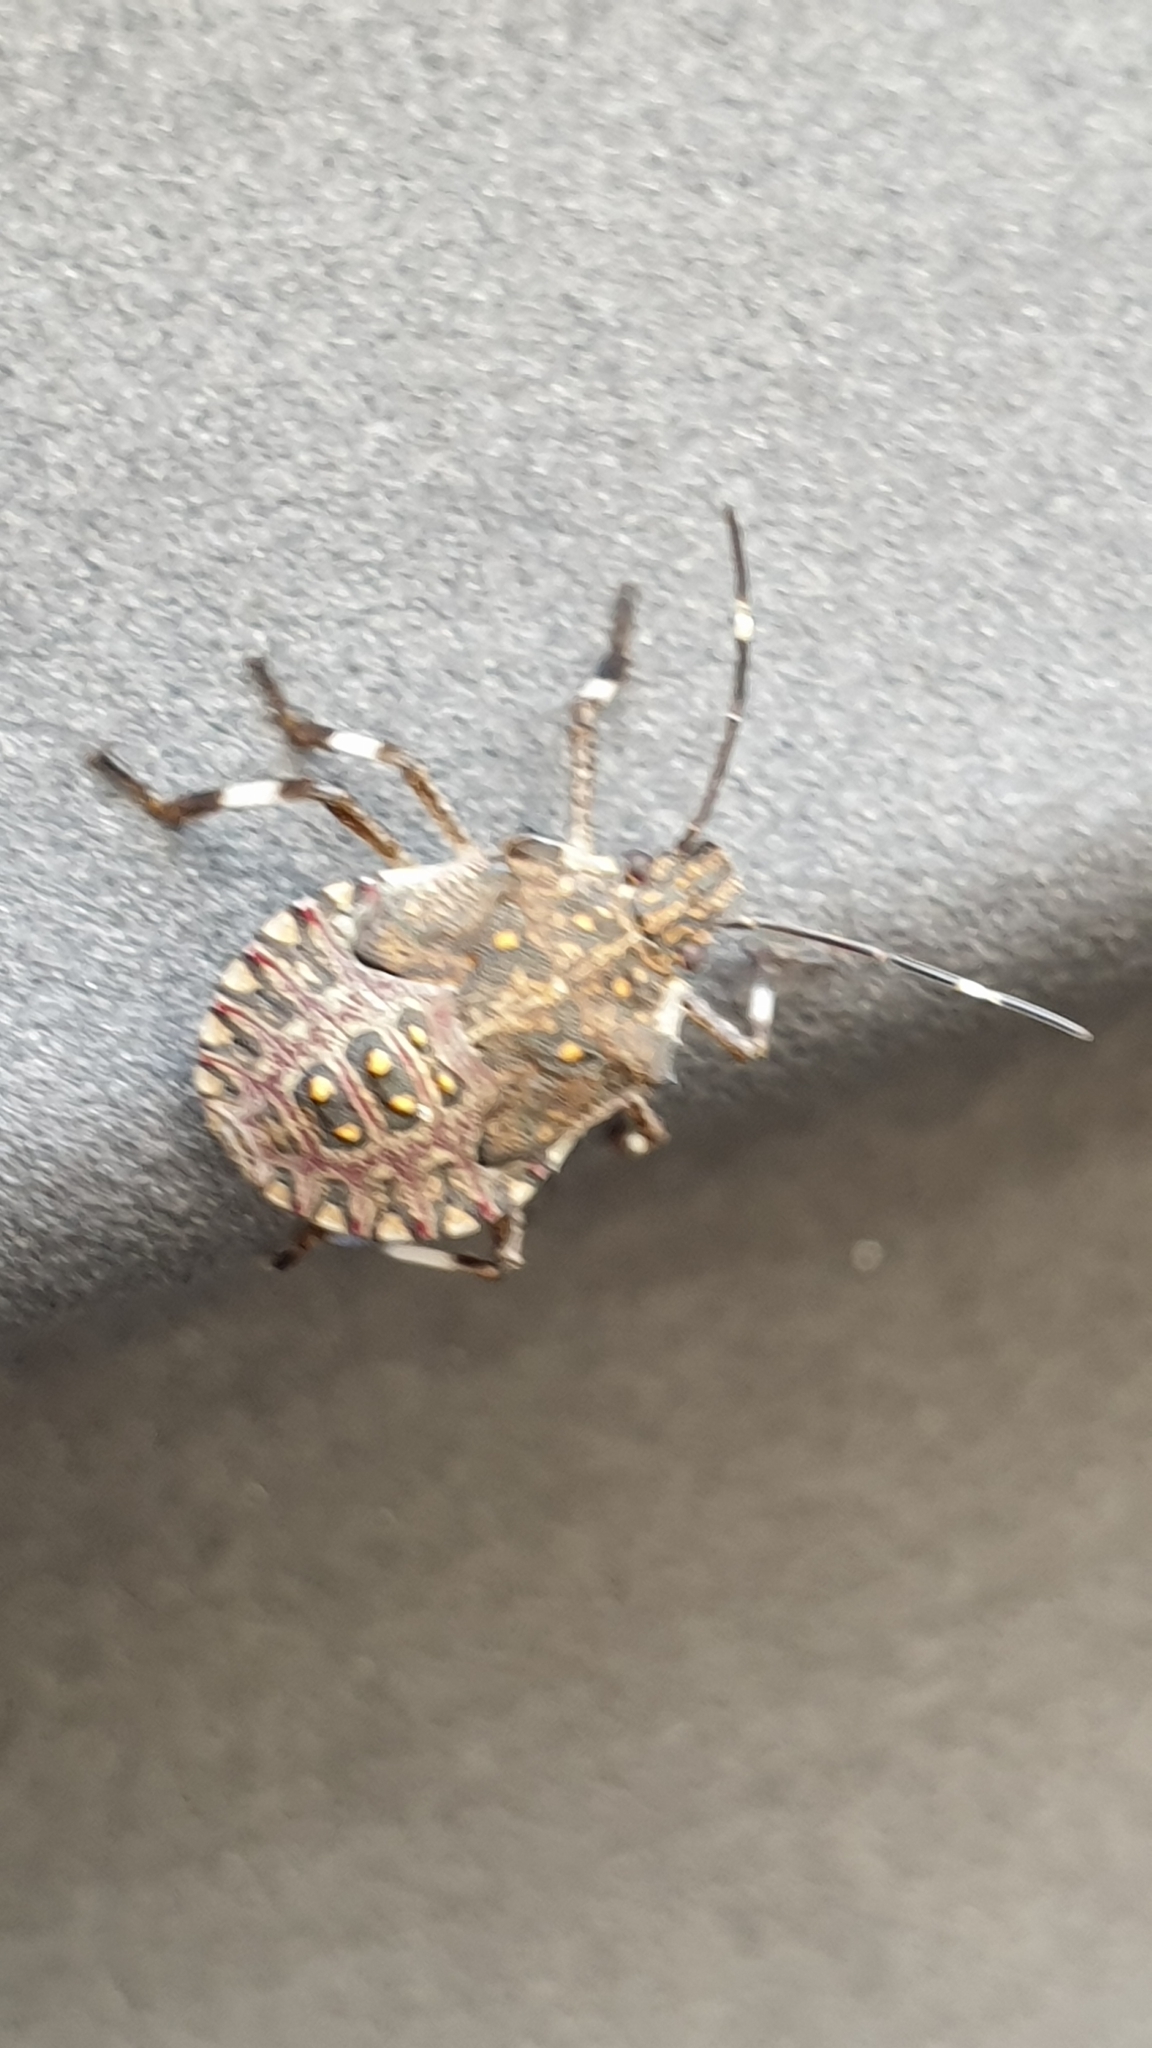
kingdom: Animalia
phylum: Arthropoda
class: Insecta
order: Hemiptera
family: Pentatomidae
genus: Halyomorpha
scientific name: Halyomorpha halys
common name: Brown marmorated stink bug
